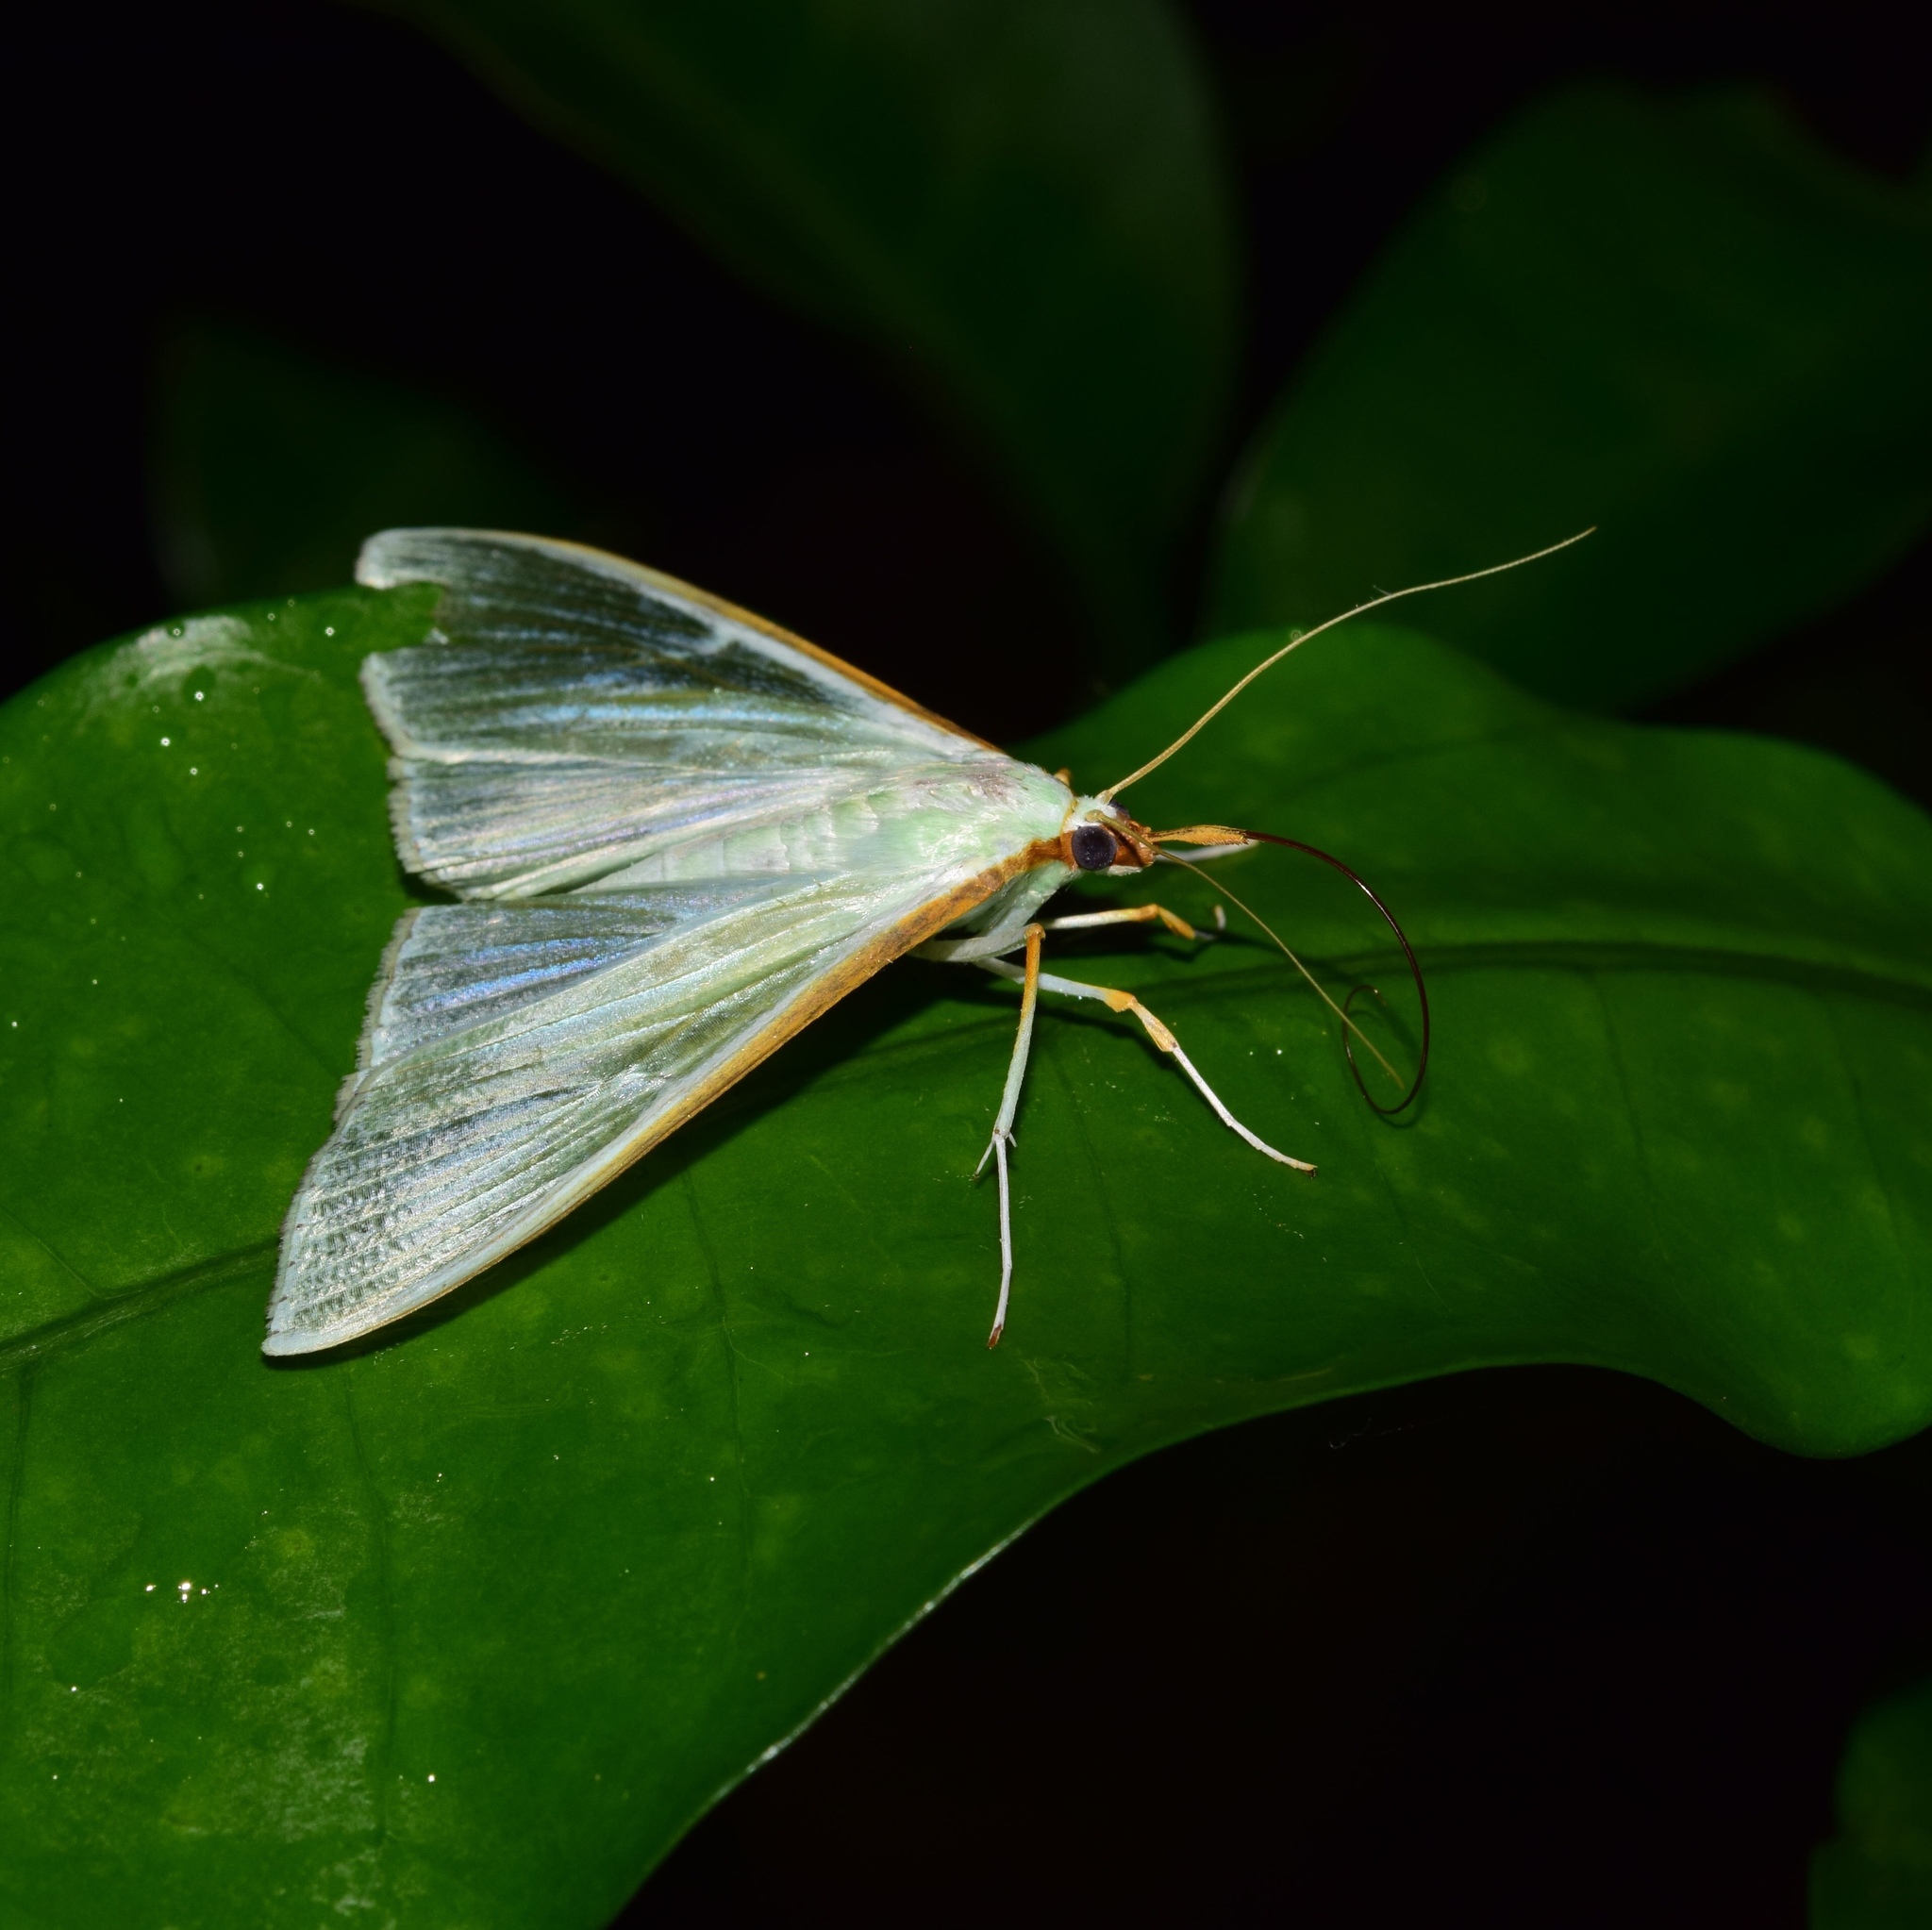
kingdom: Animalia
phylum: Arthropoda
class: Insecta
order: Lepidoptera
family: Crambidae
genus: Stemorrhages
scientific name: Stemorrhages sericea
